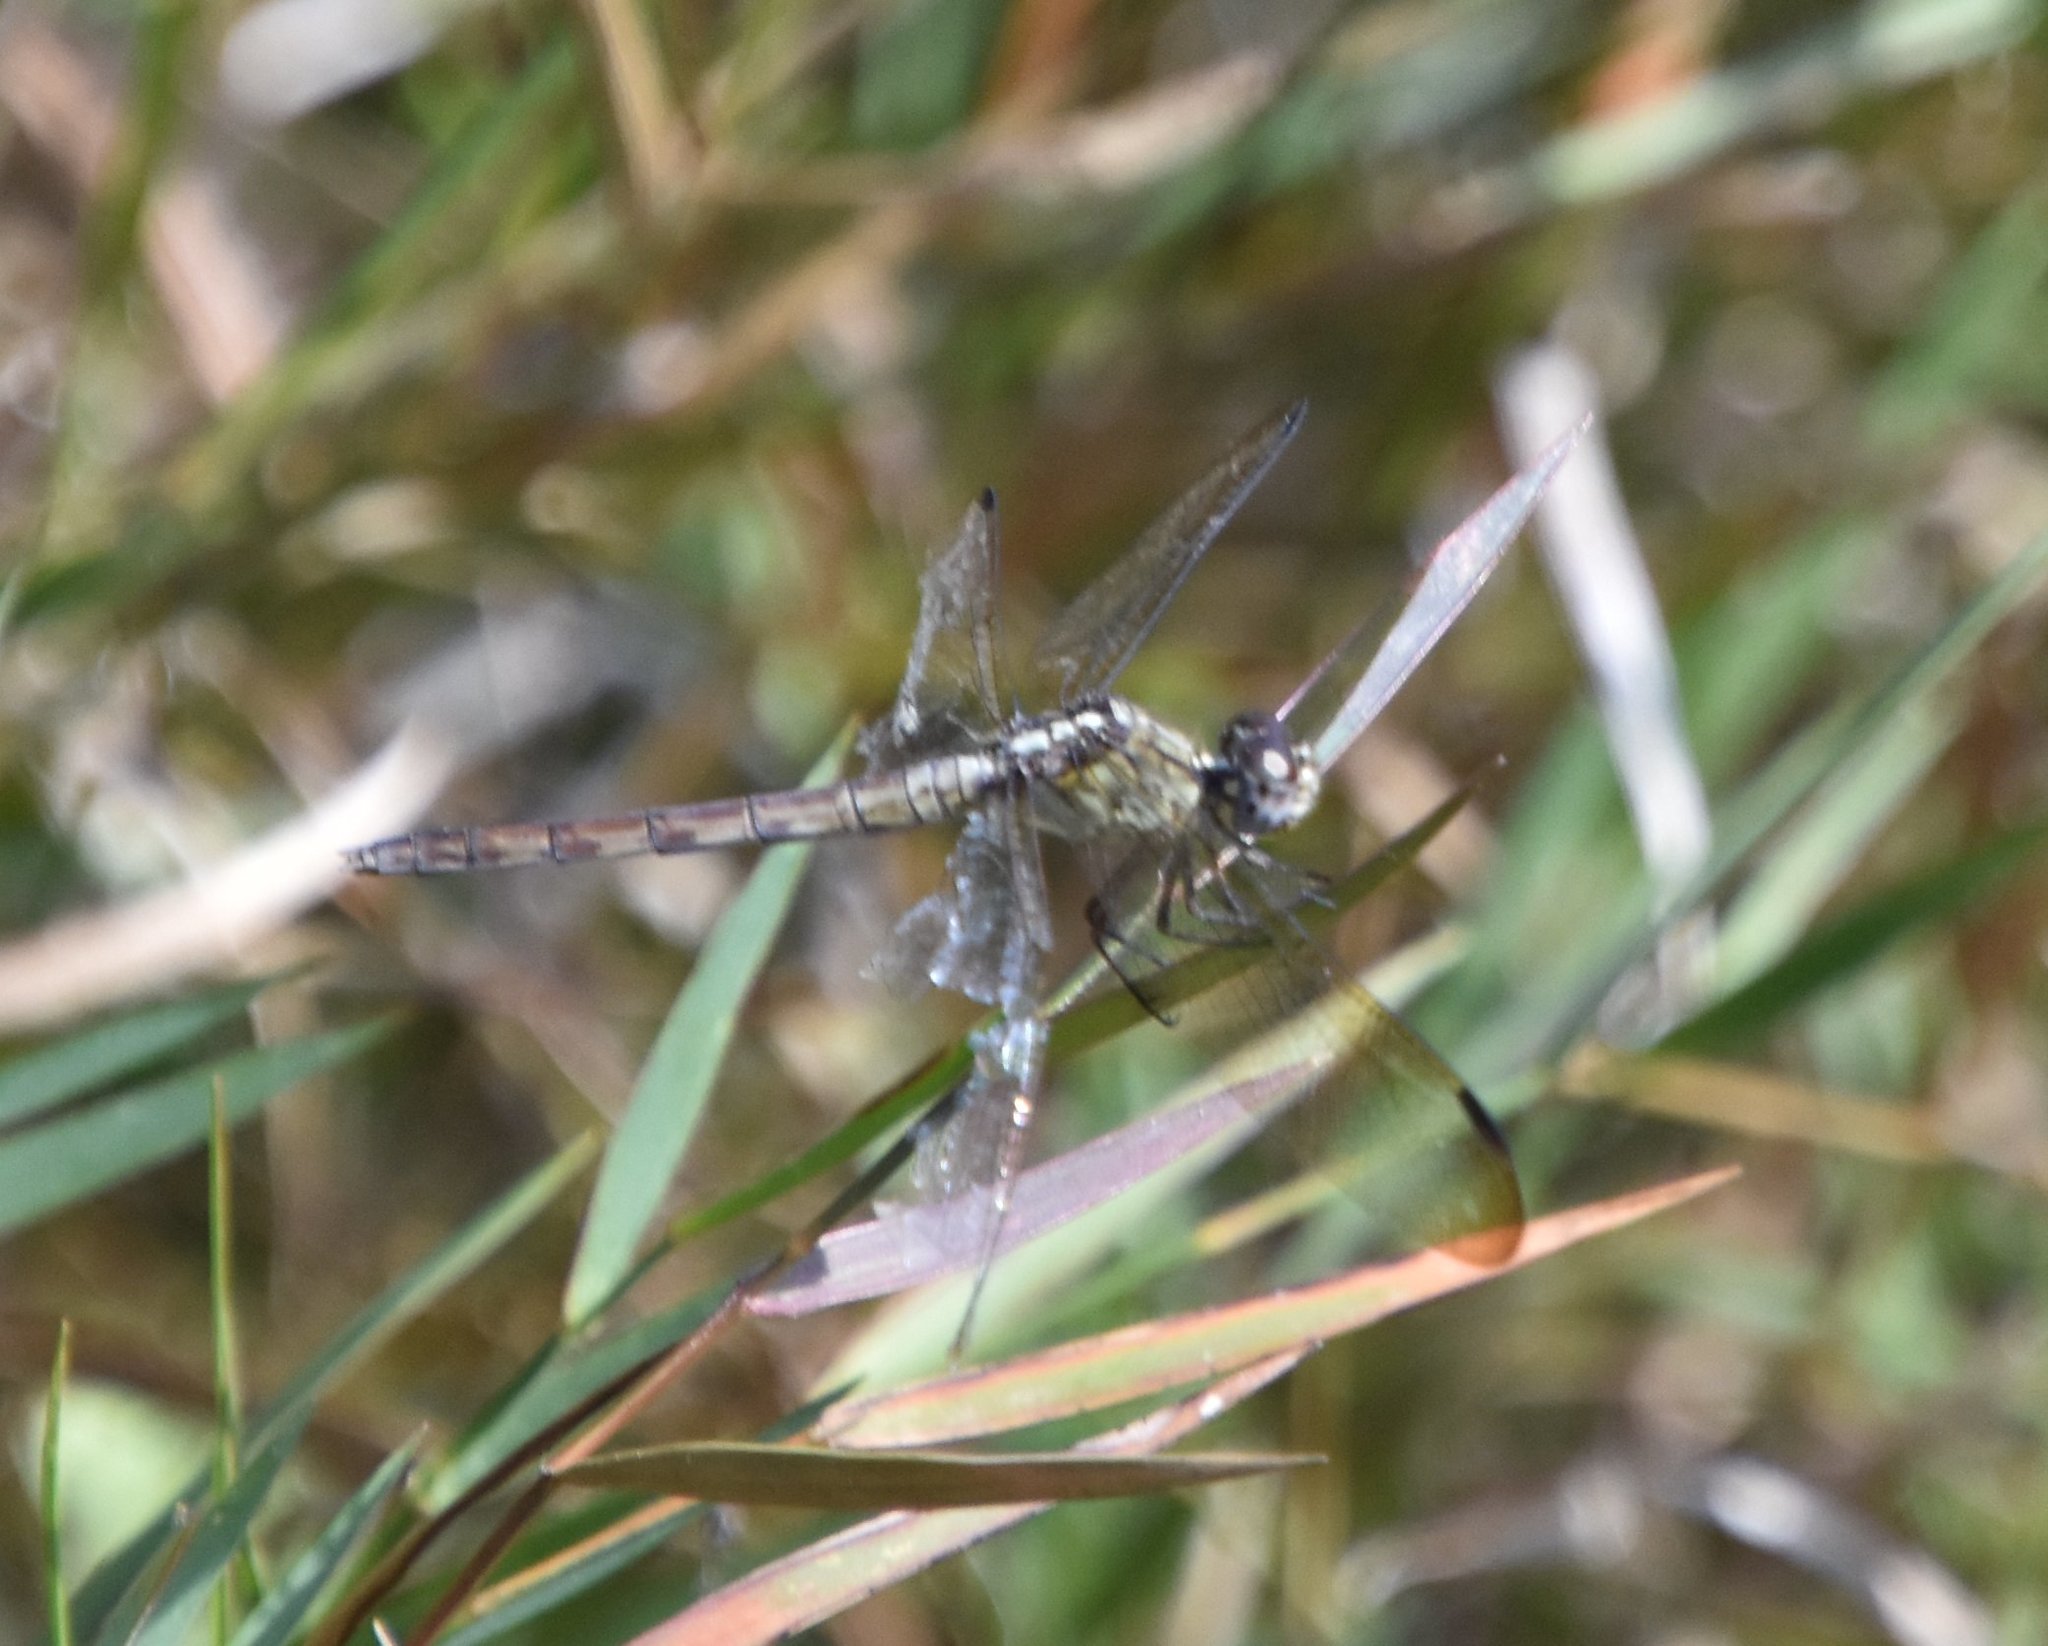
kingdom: Animalia
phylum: Arthropoda
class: Insecta
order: Odonata
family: Libellulidae
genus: Erythrodiplax
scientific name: Erythrodiplax umbrata
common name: Band-winged dragonlet
